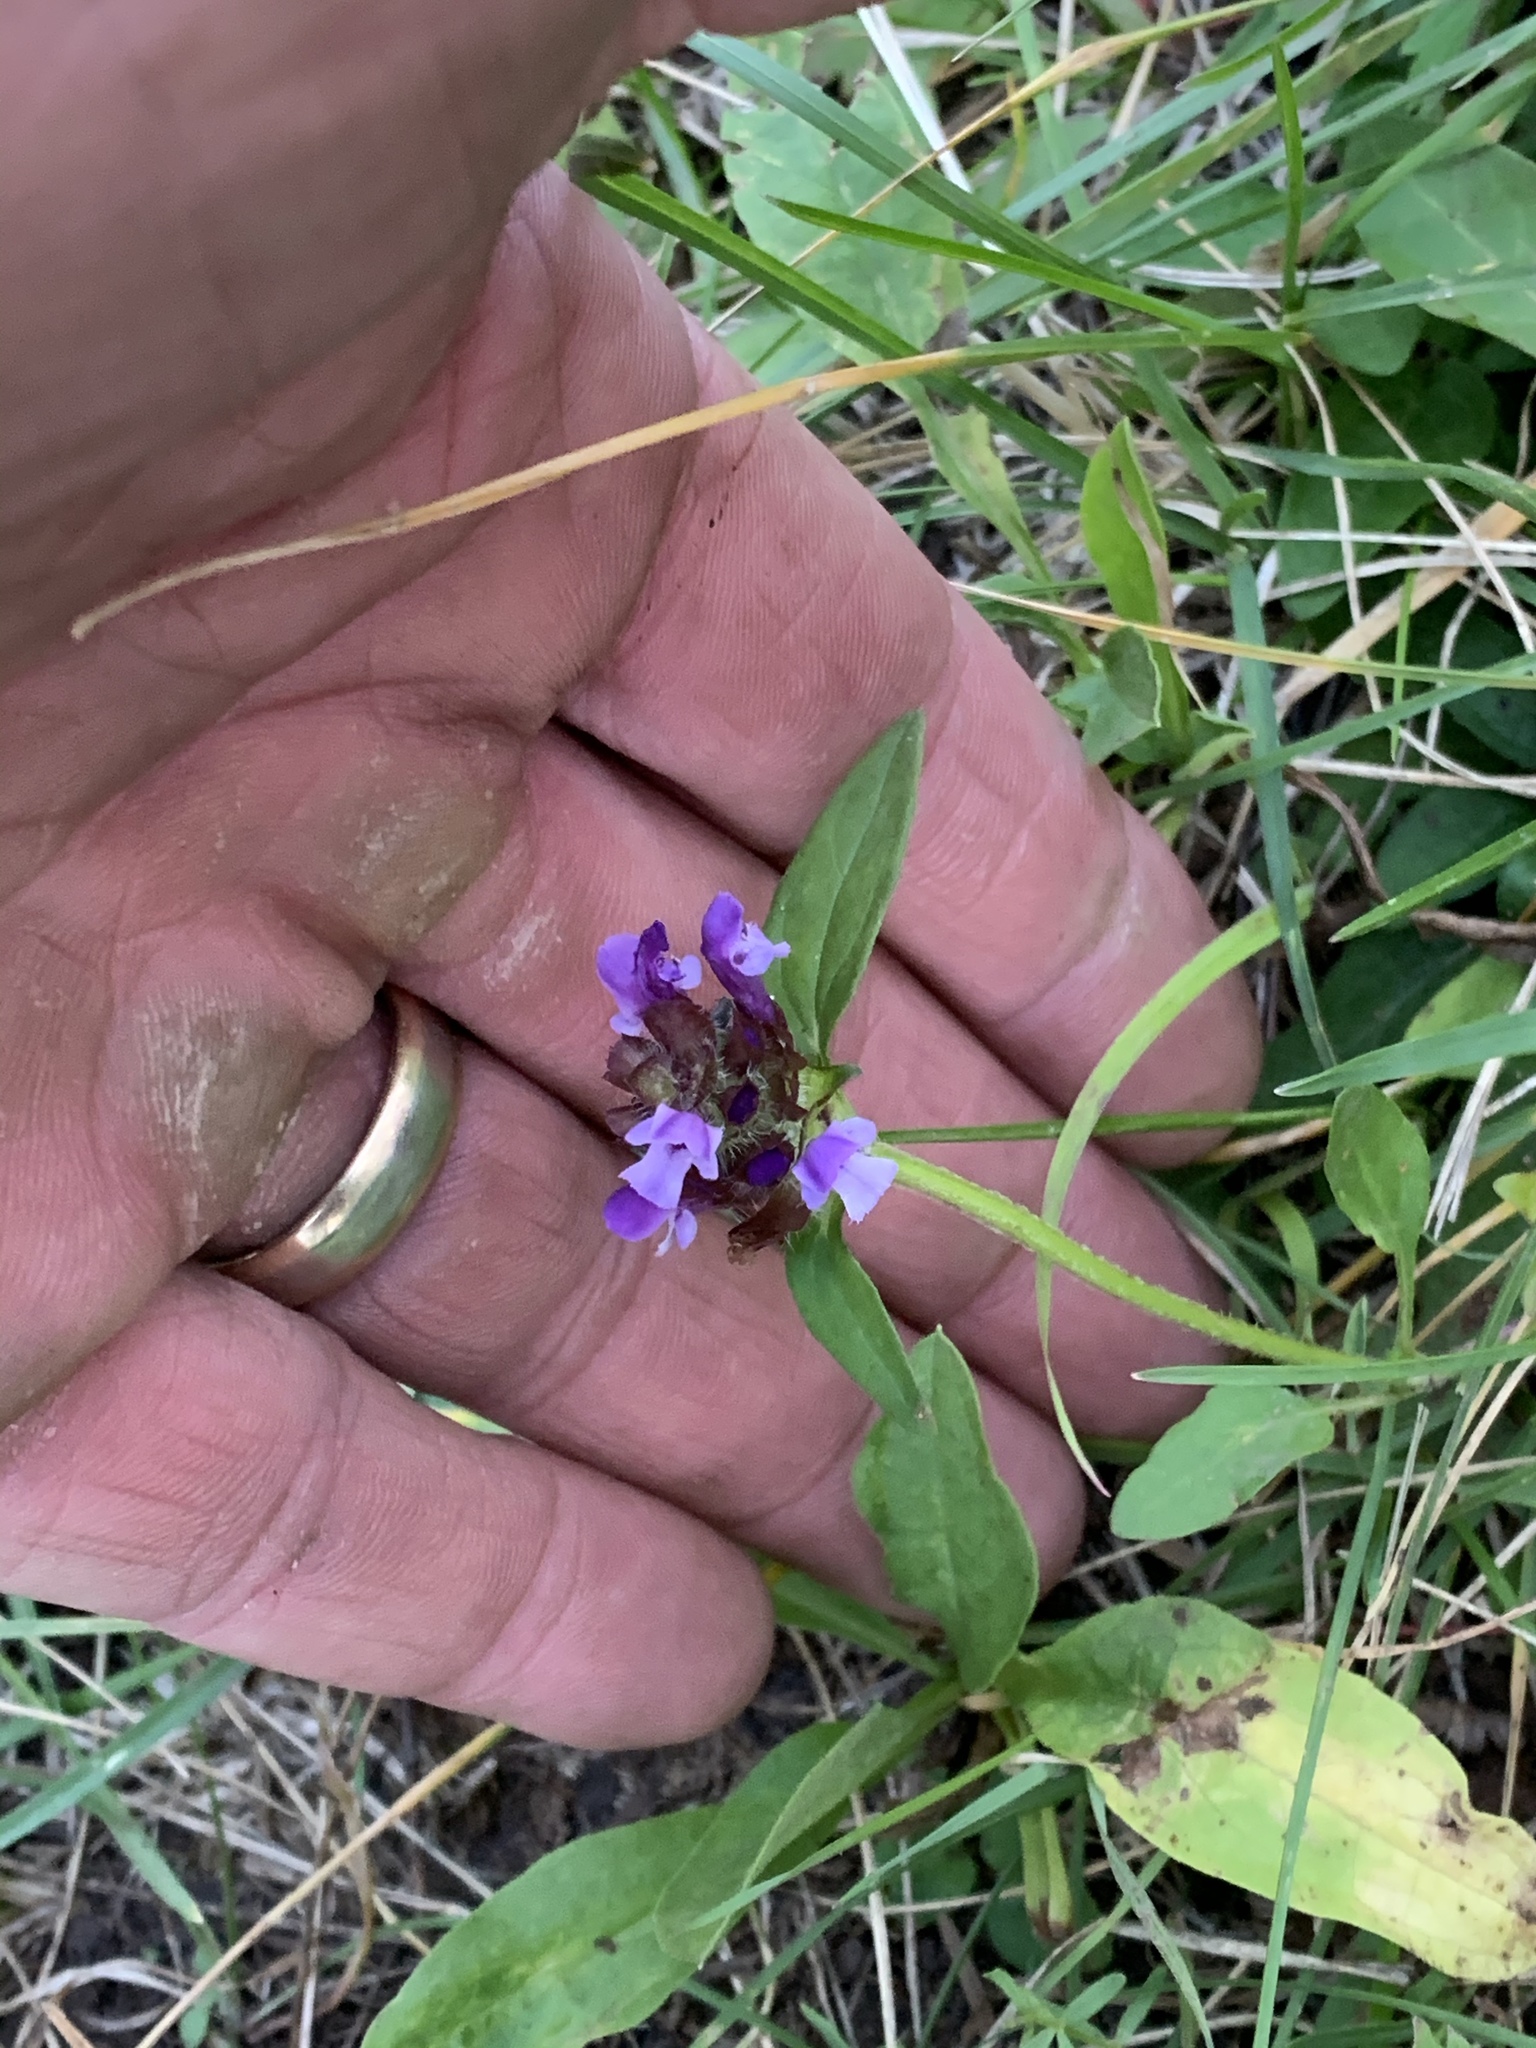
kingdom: Plantae
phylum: Tracheophyta
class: Magnoliopsida
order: Lamiales
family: Lamiaceae
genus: Prunella
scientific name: Prunella vulgaris
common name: Heal-all
